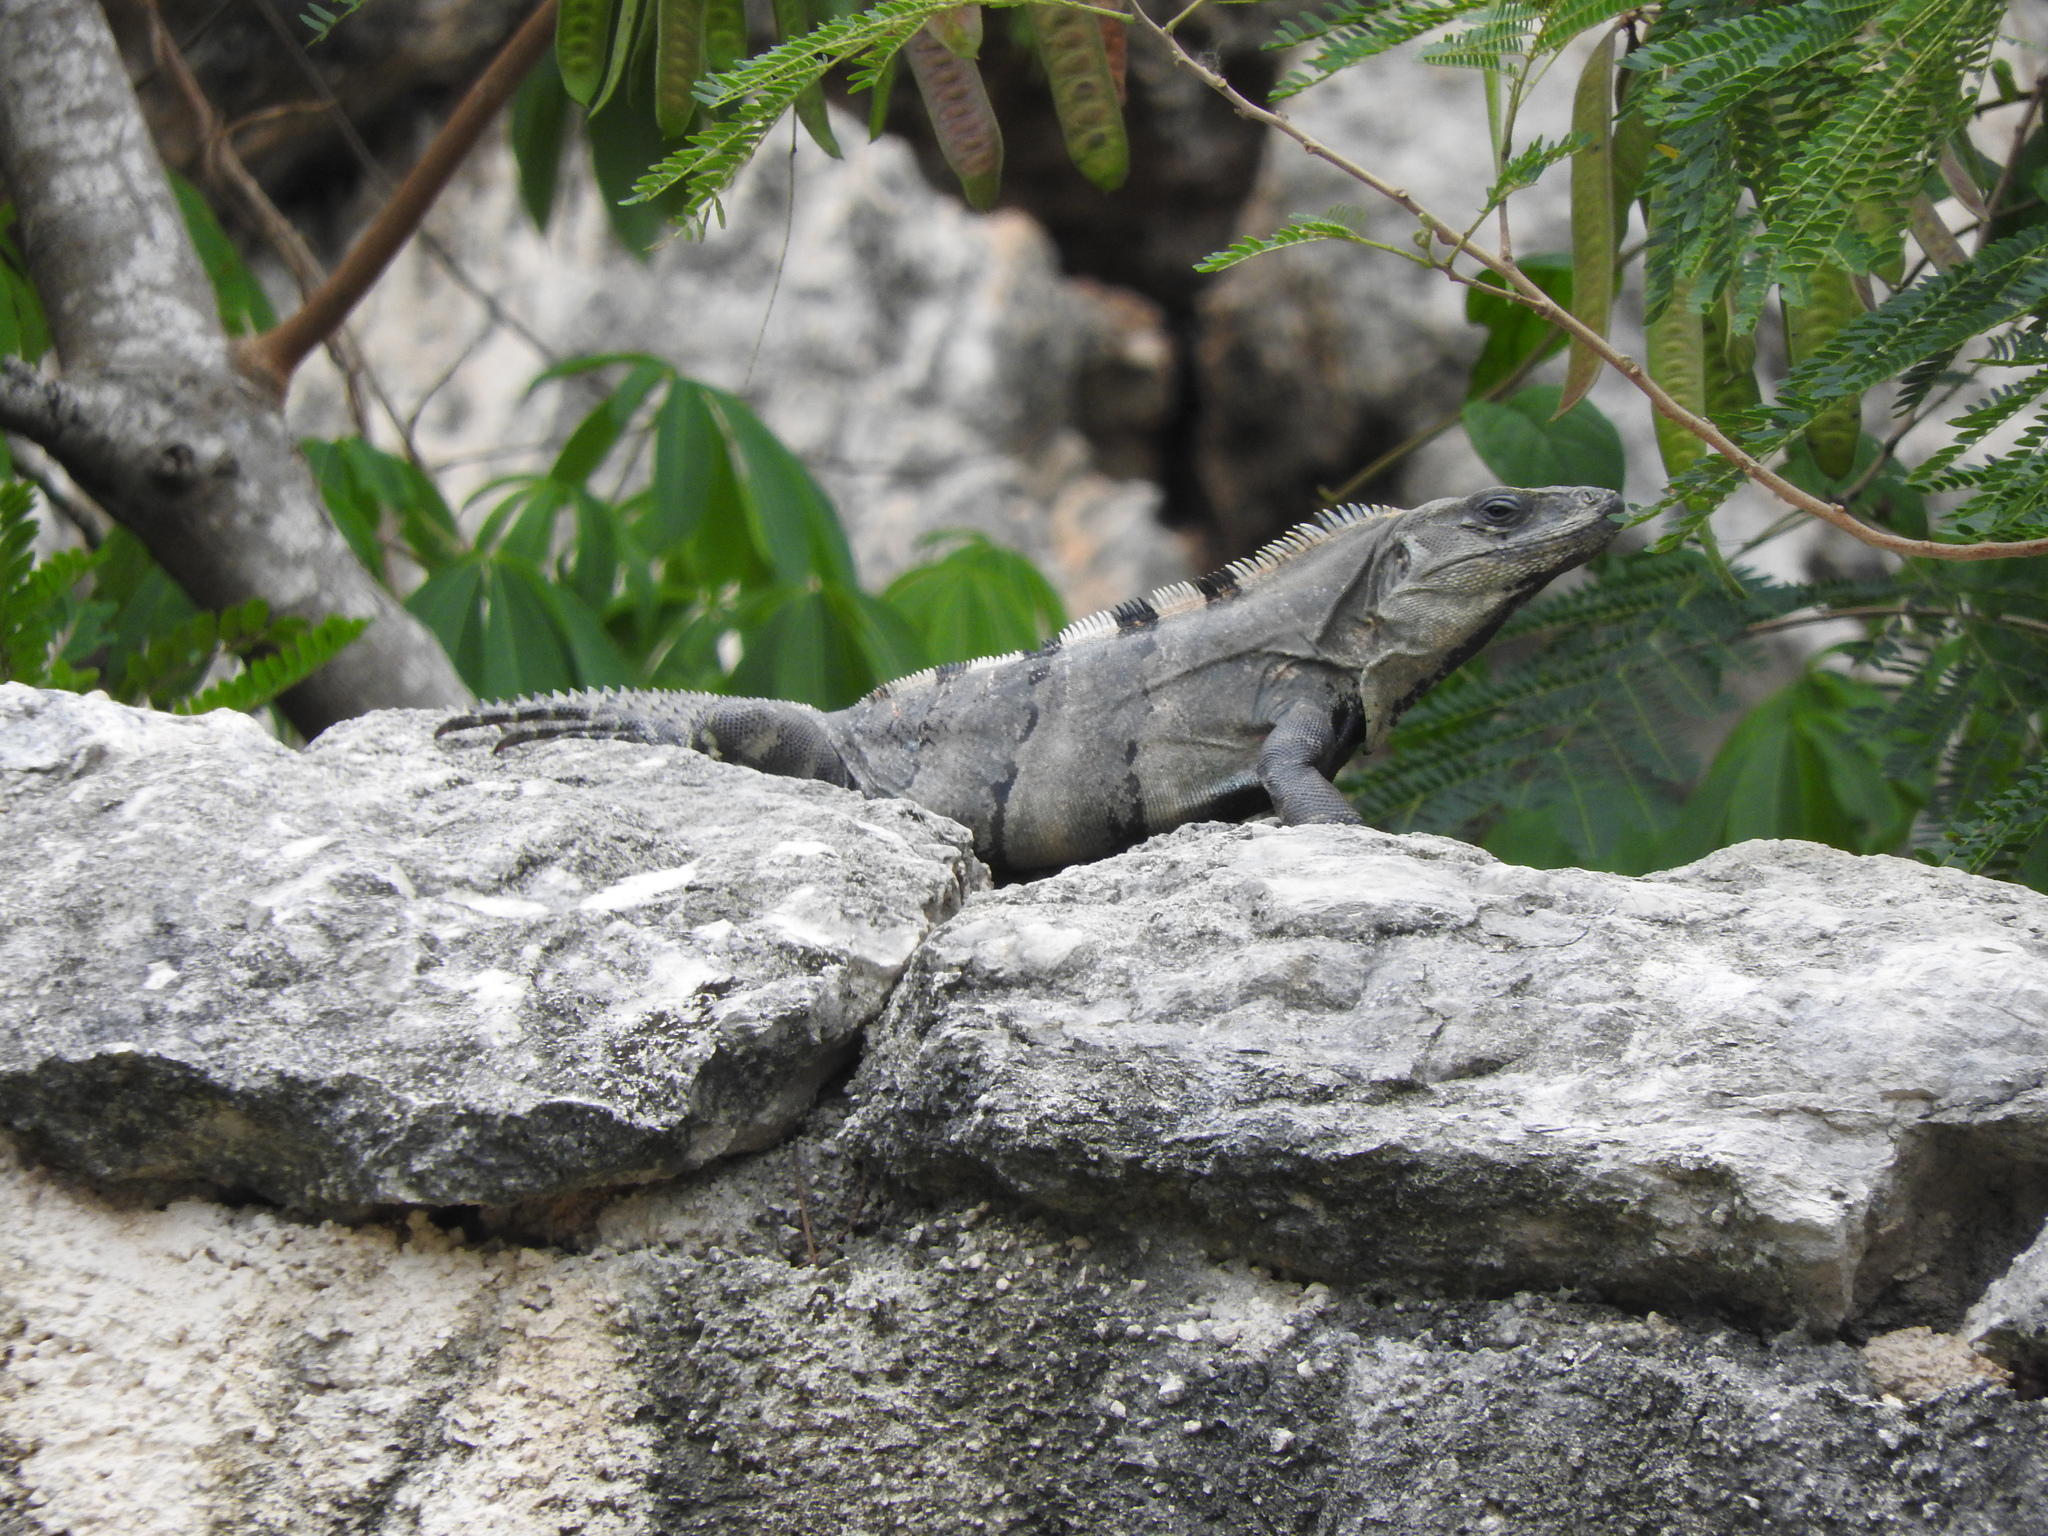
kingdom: Animalia
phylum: Chordata
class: Squamata
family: Iguanidae
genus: Ctenosaura
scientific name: Ctenosaura similis
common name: Black spiny-tailed iguana
